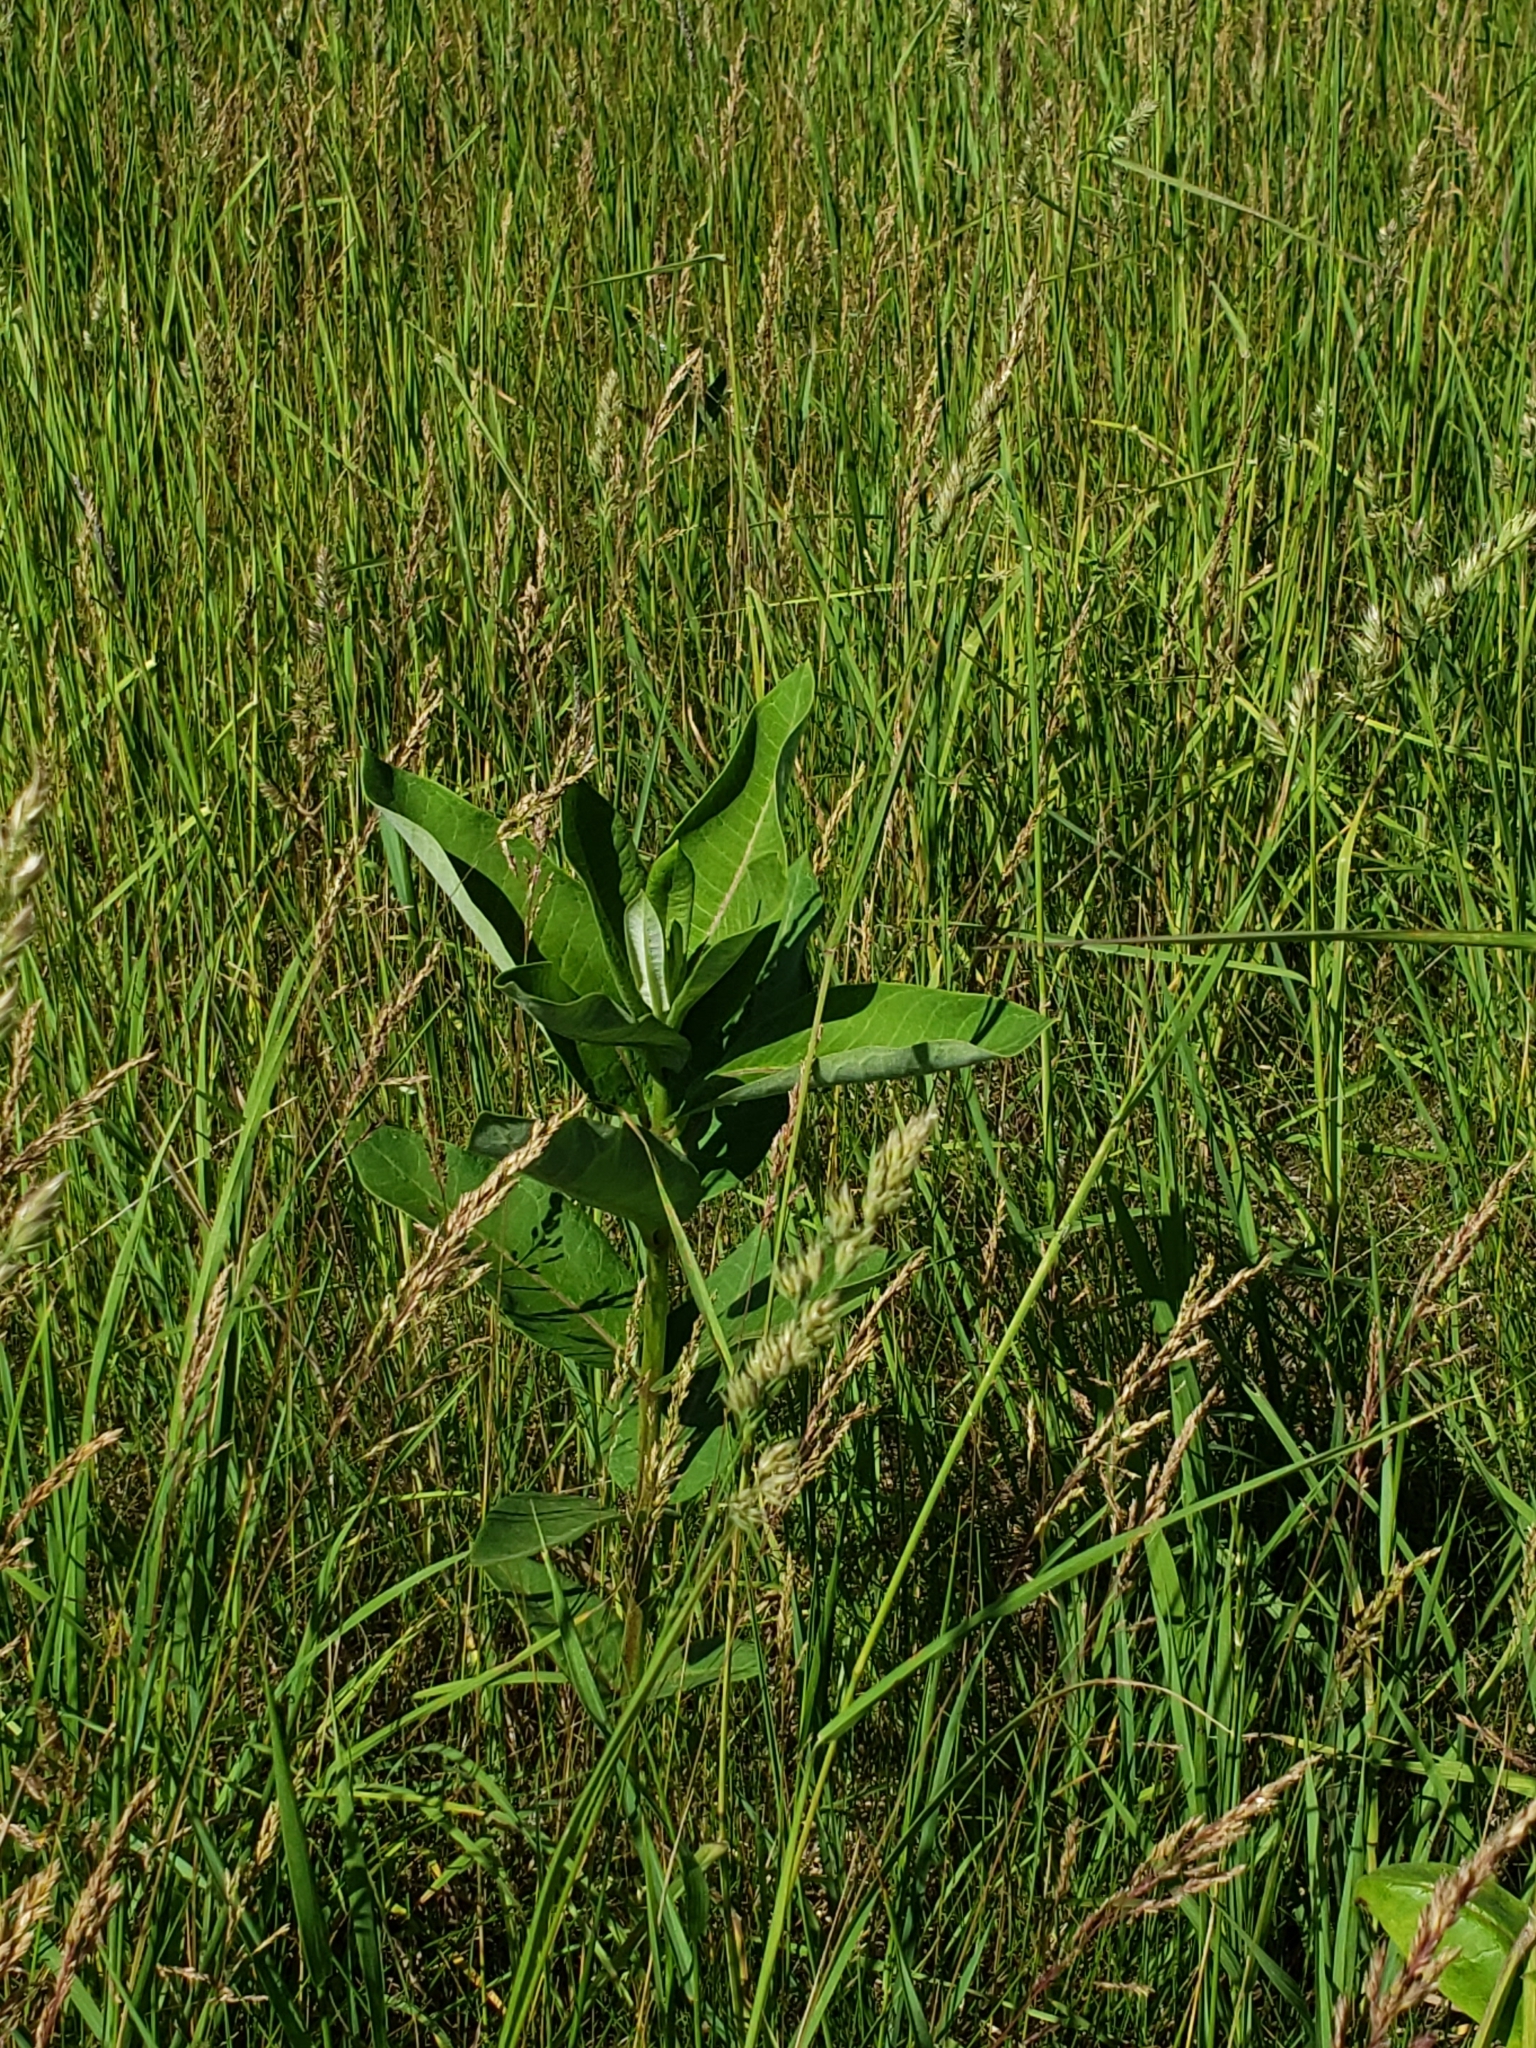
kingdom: Plantae
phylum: Tracheophyta
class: Magnoliopsida
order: Gentianales
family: Apocynaceae
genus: Asclepias
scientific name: Asclepias syriaca
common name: Common milkweed
